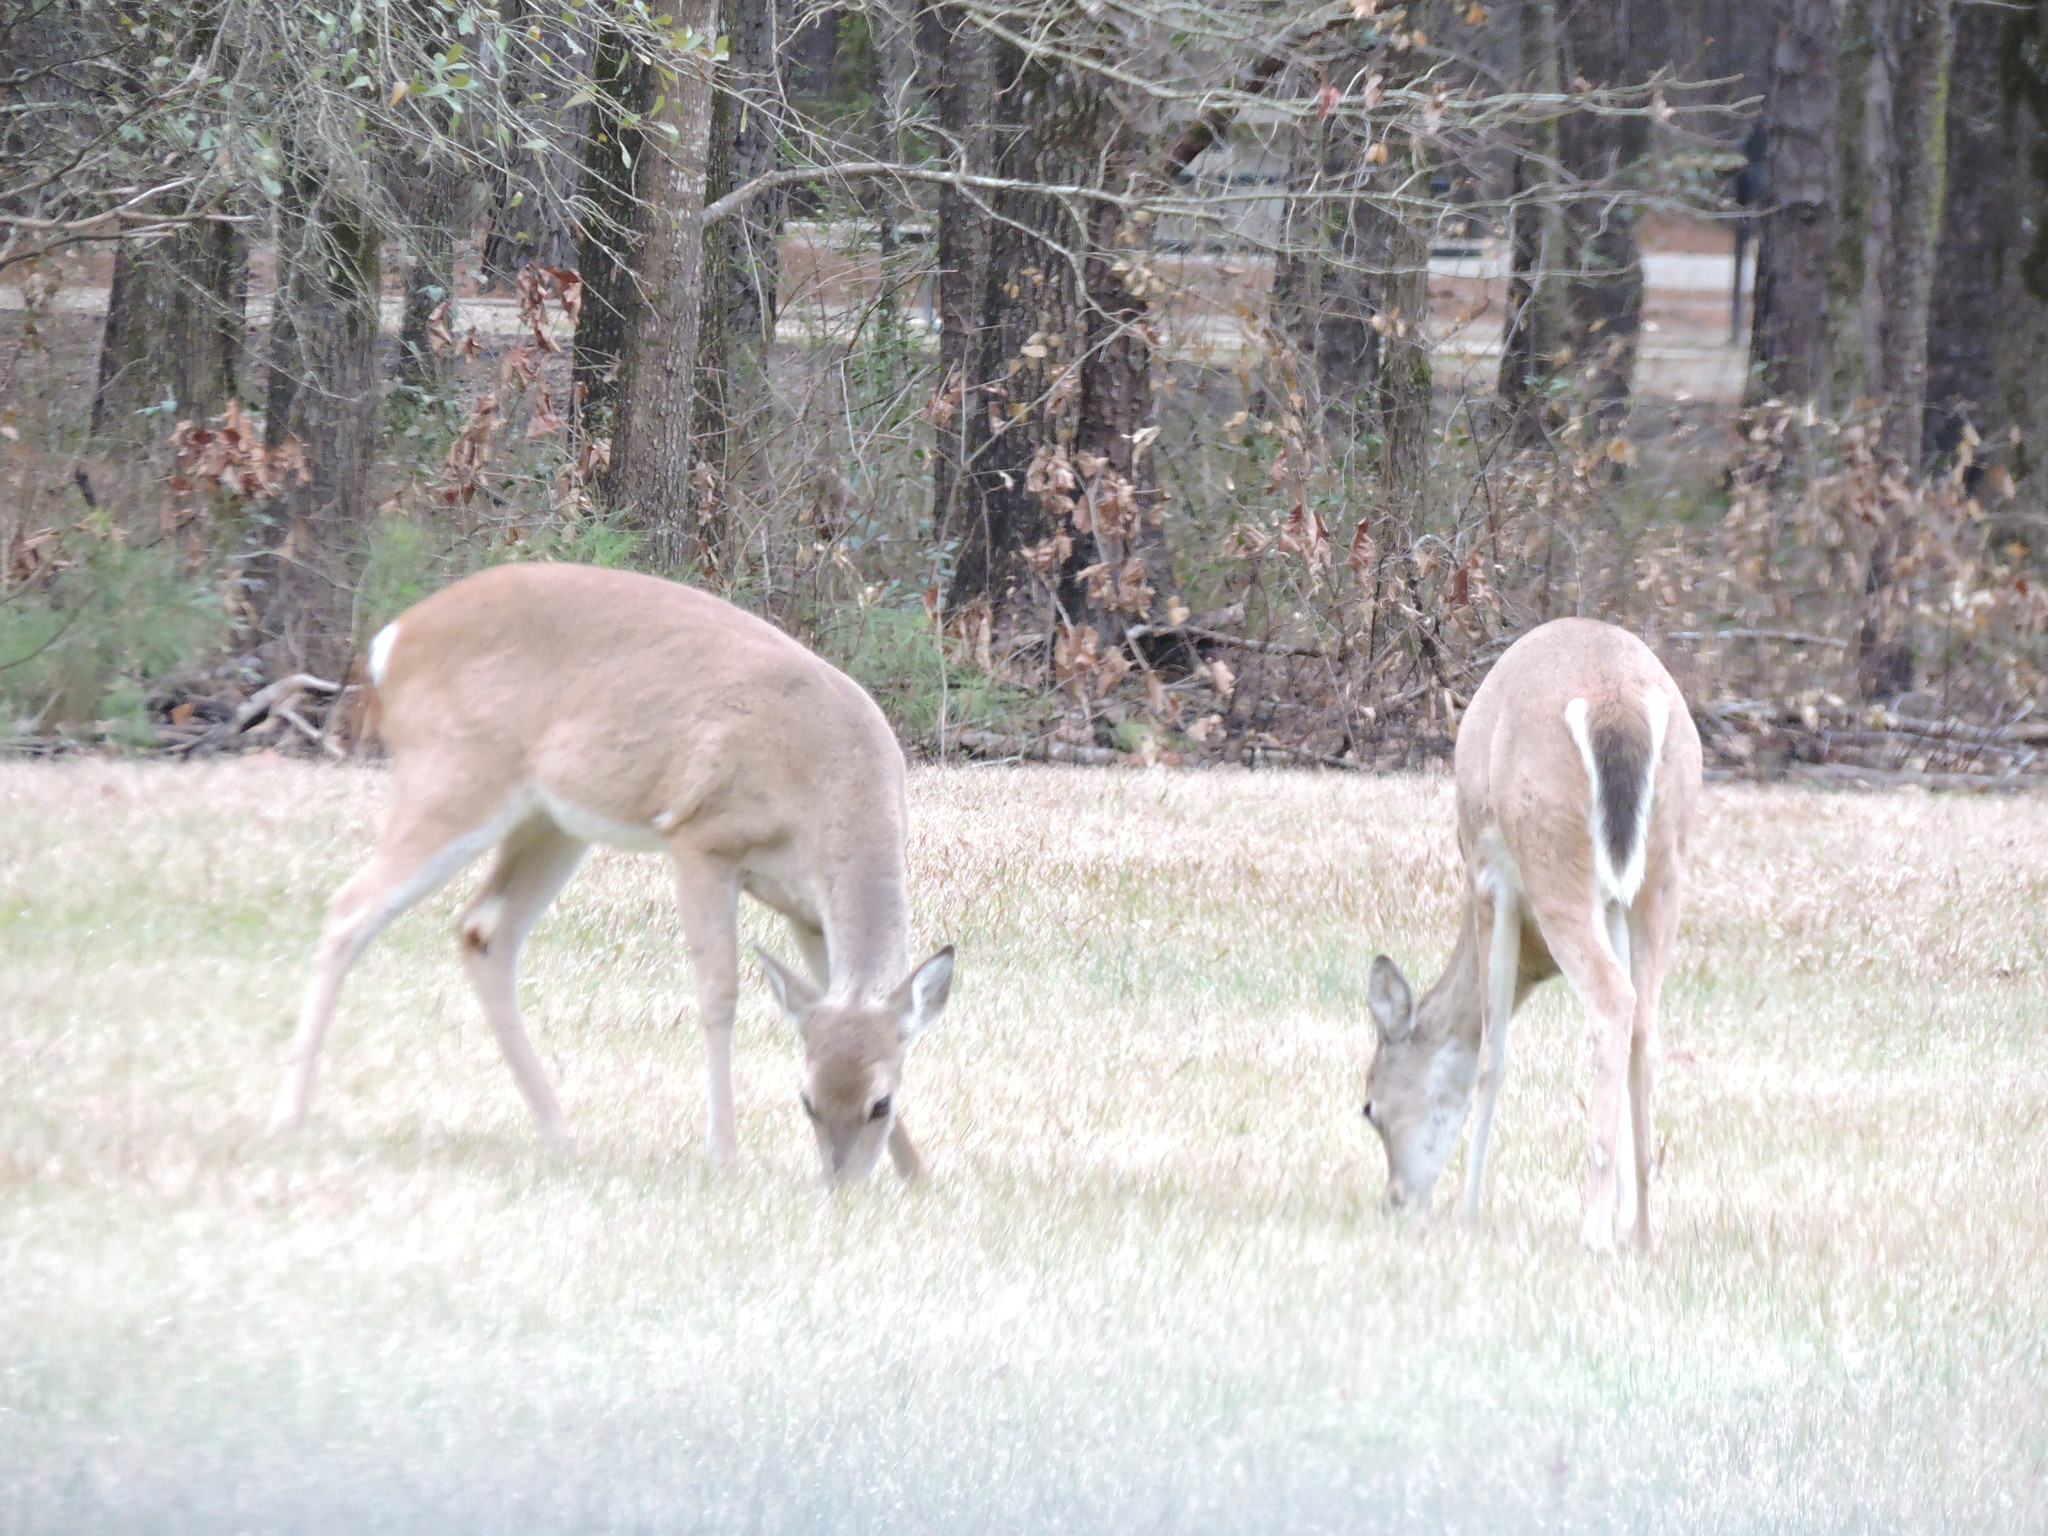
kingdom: Animalia
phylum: Chordata
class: Mammalia
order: Artiodactyla
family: Cervidae
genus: Odocoileus
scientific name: Odocoileus virginianus
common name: White-tailed deer
